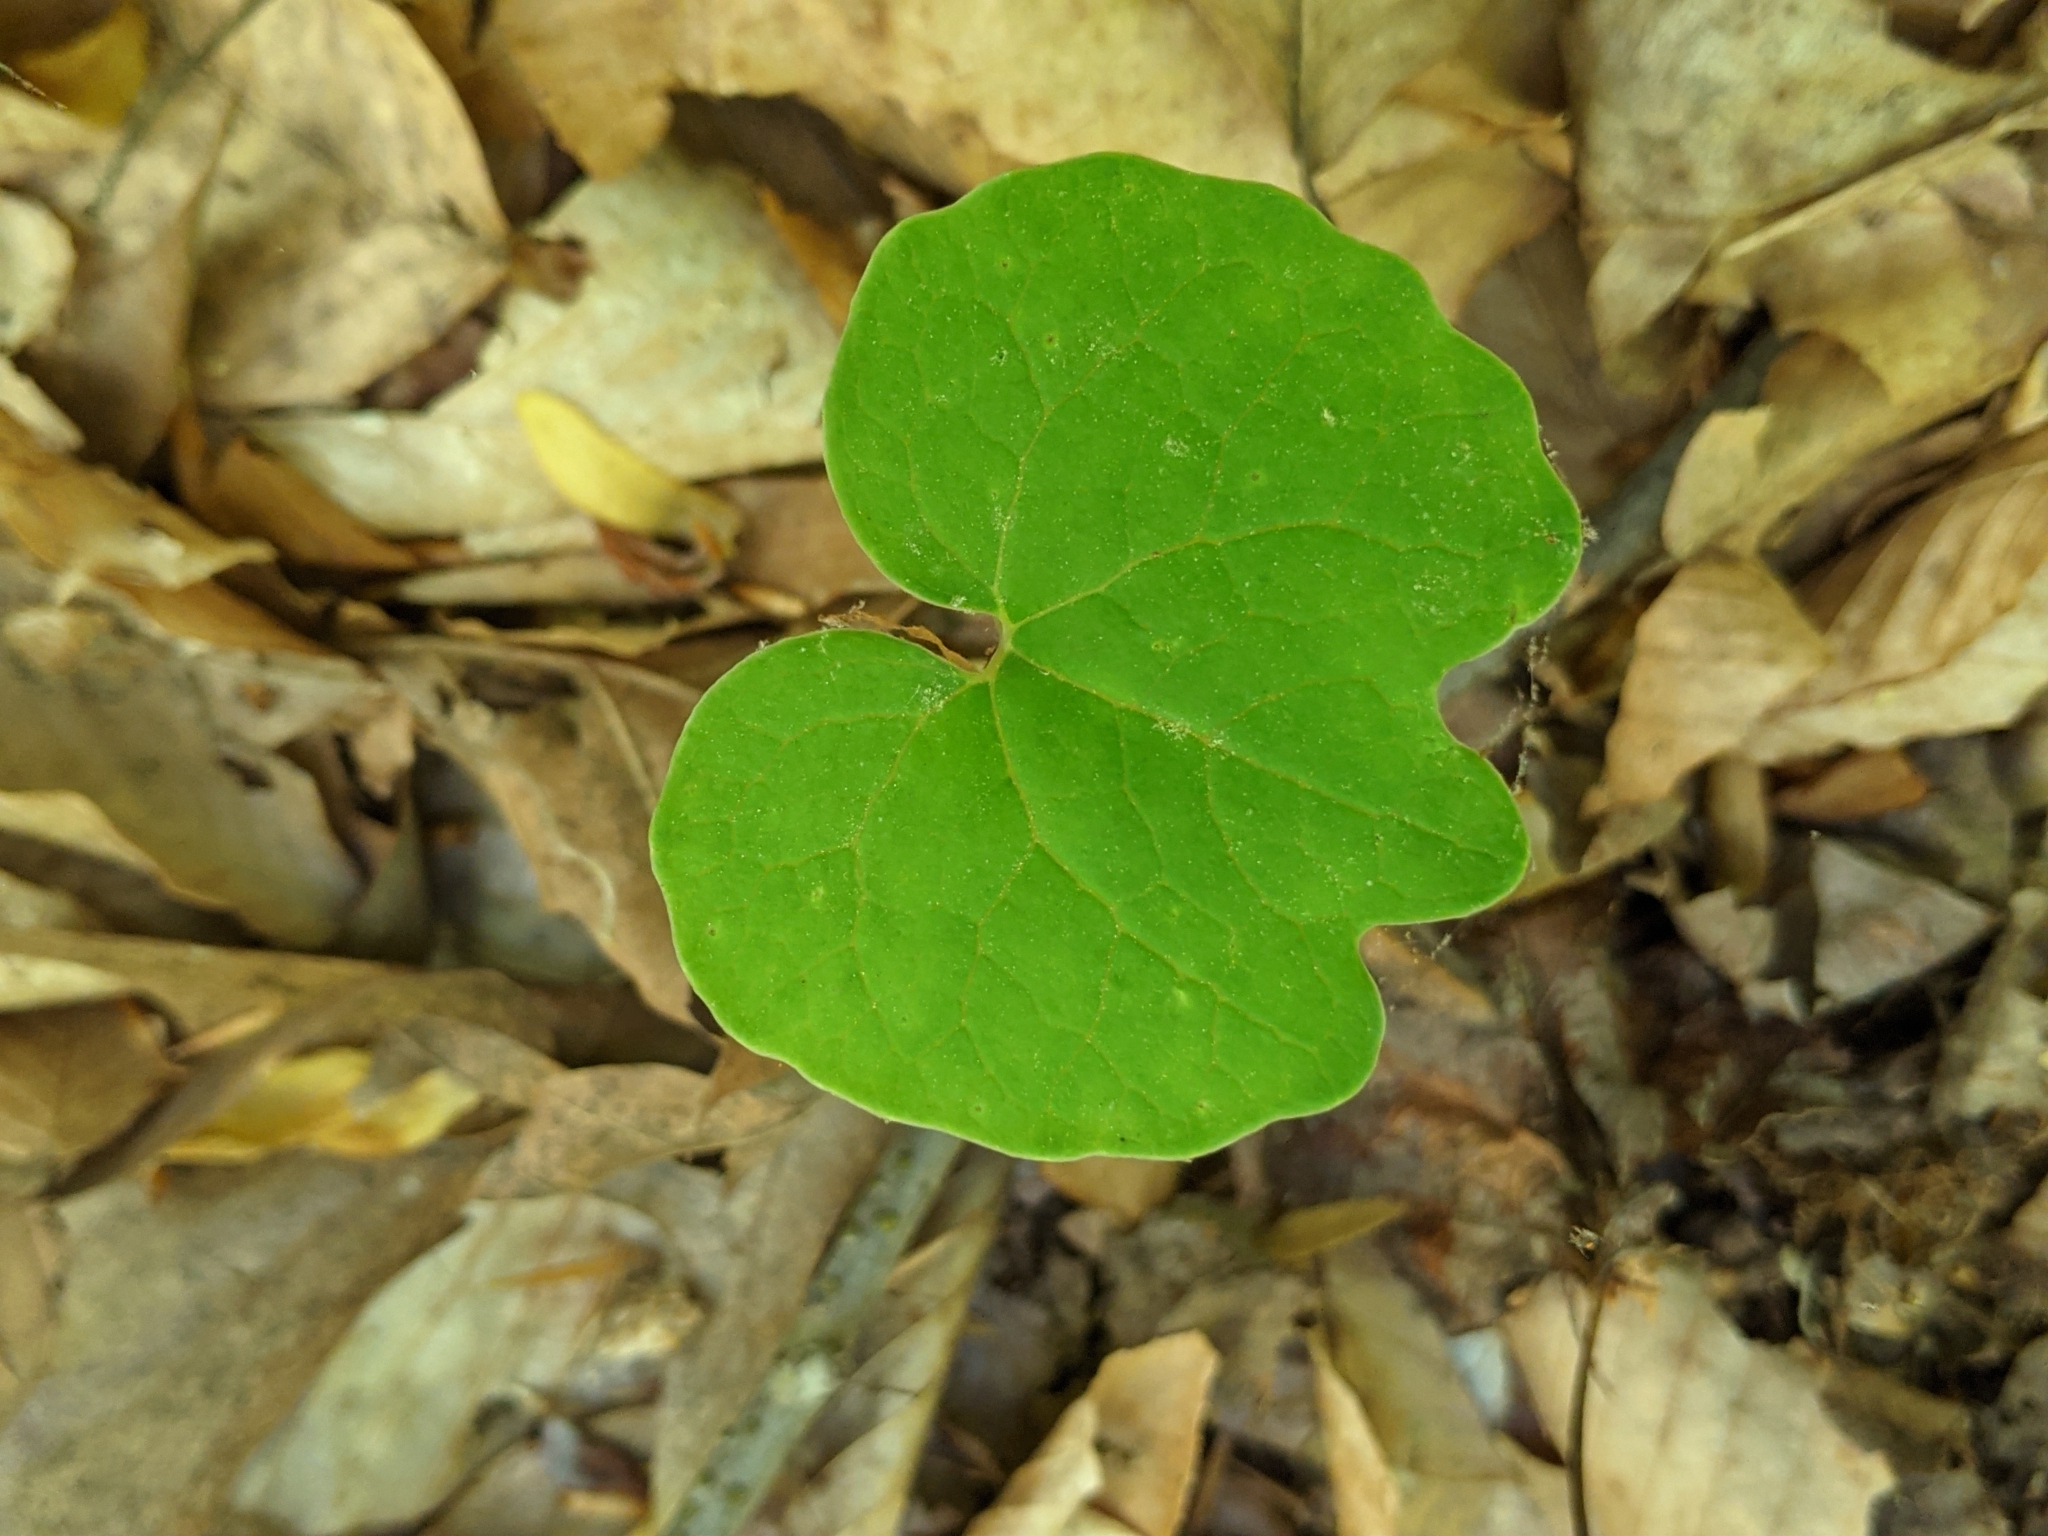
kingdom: Plantae
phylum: Tracheophyta
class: Magnoliopsida
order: Ranunculales
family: Papaveraceae
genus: Sanguinaria
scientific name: Sanguinaria canadensis
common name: Bloodroot
